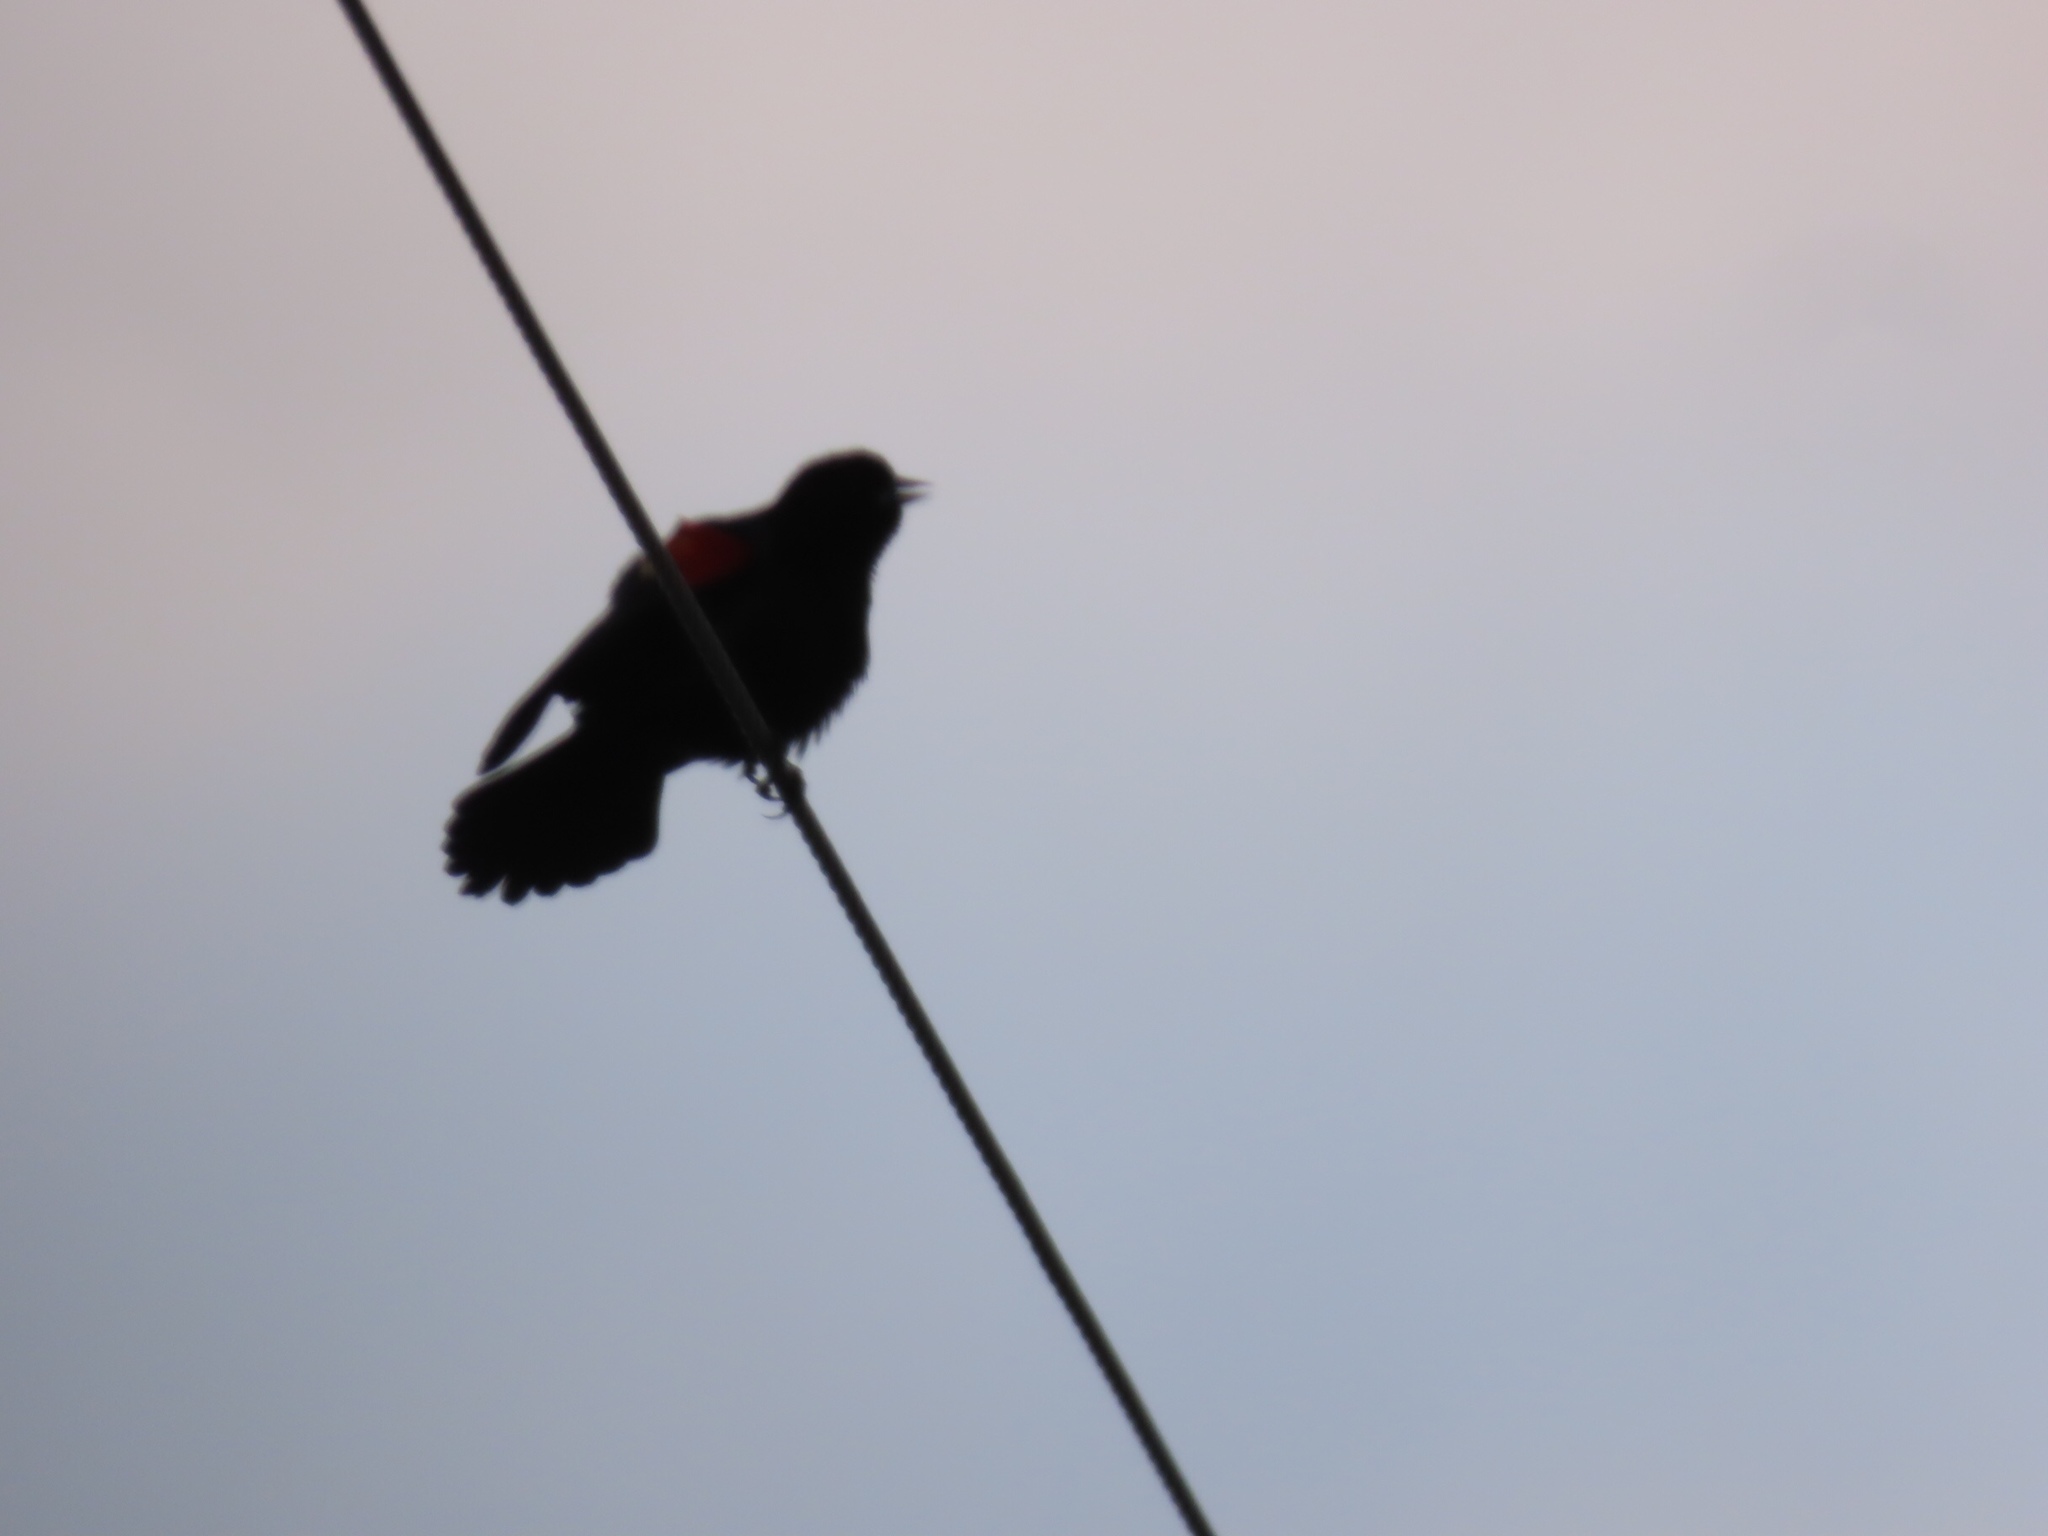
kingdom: Animalia
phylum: Chordata
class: Aves
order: Passeriformes
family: Icteridae
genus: Agelaius
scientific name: Agelaius phoeniceus
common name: Red-winged blackbird
